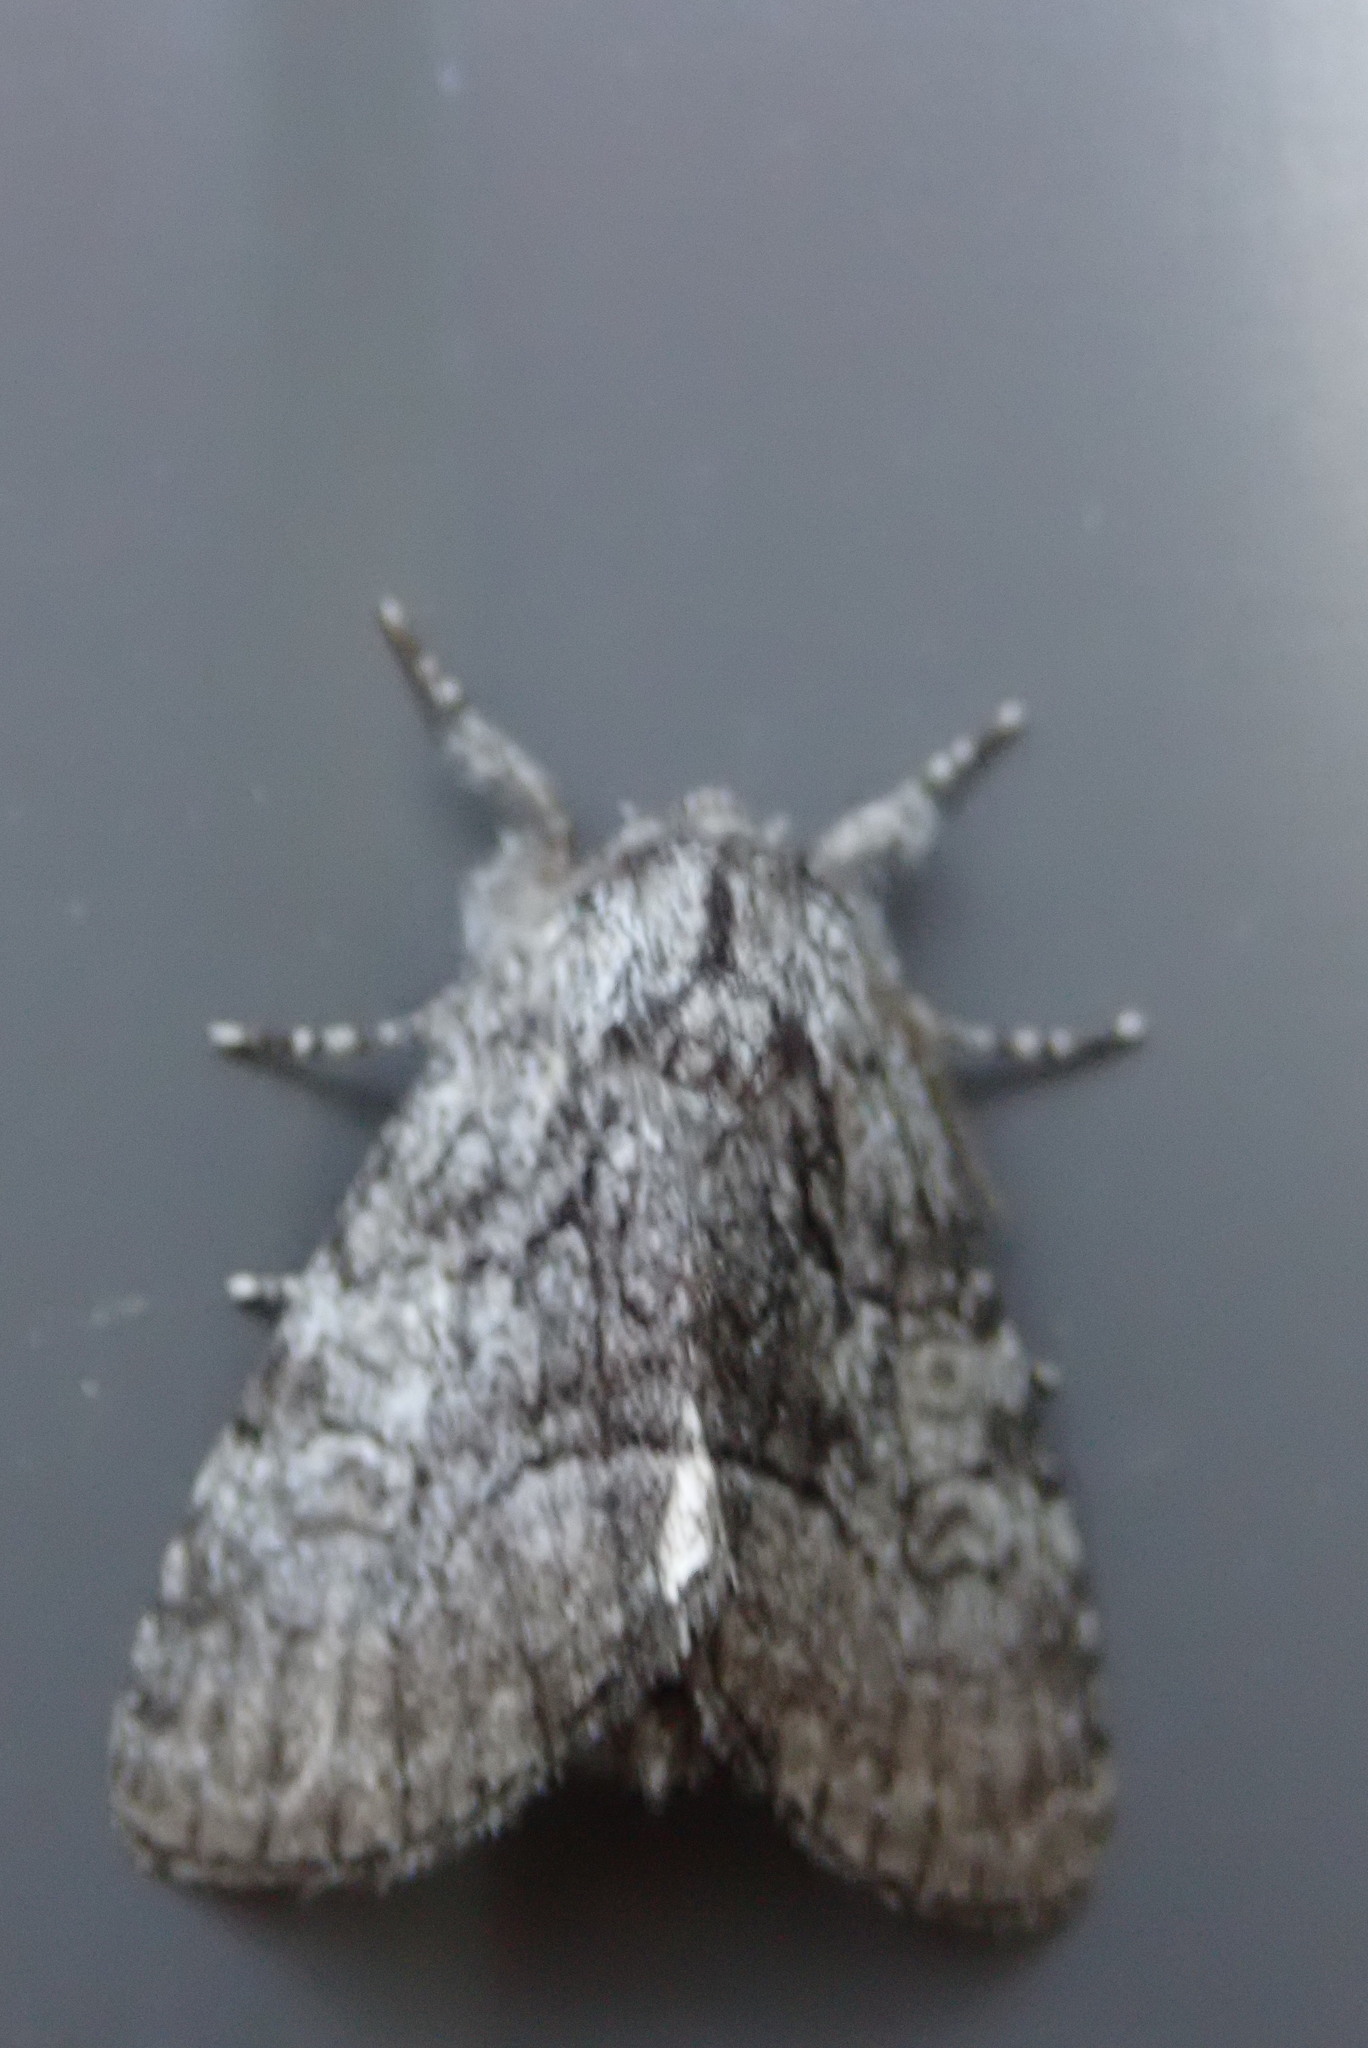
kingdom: Animalia
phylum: Arthropoda
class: Insecta
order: Lepidoptera
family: Noctuidae
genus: Raphia
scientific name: Raphia frater
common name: Brother
